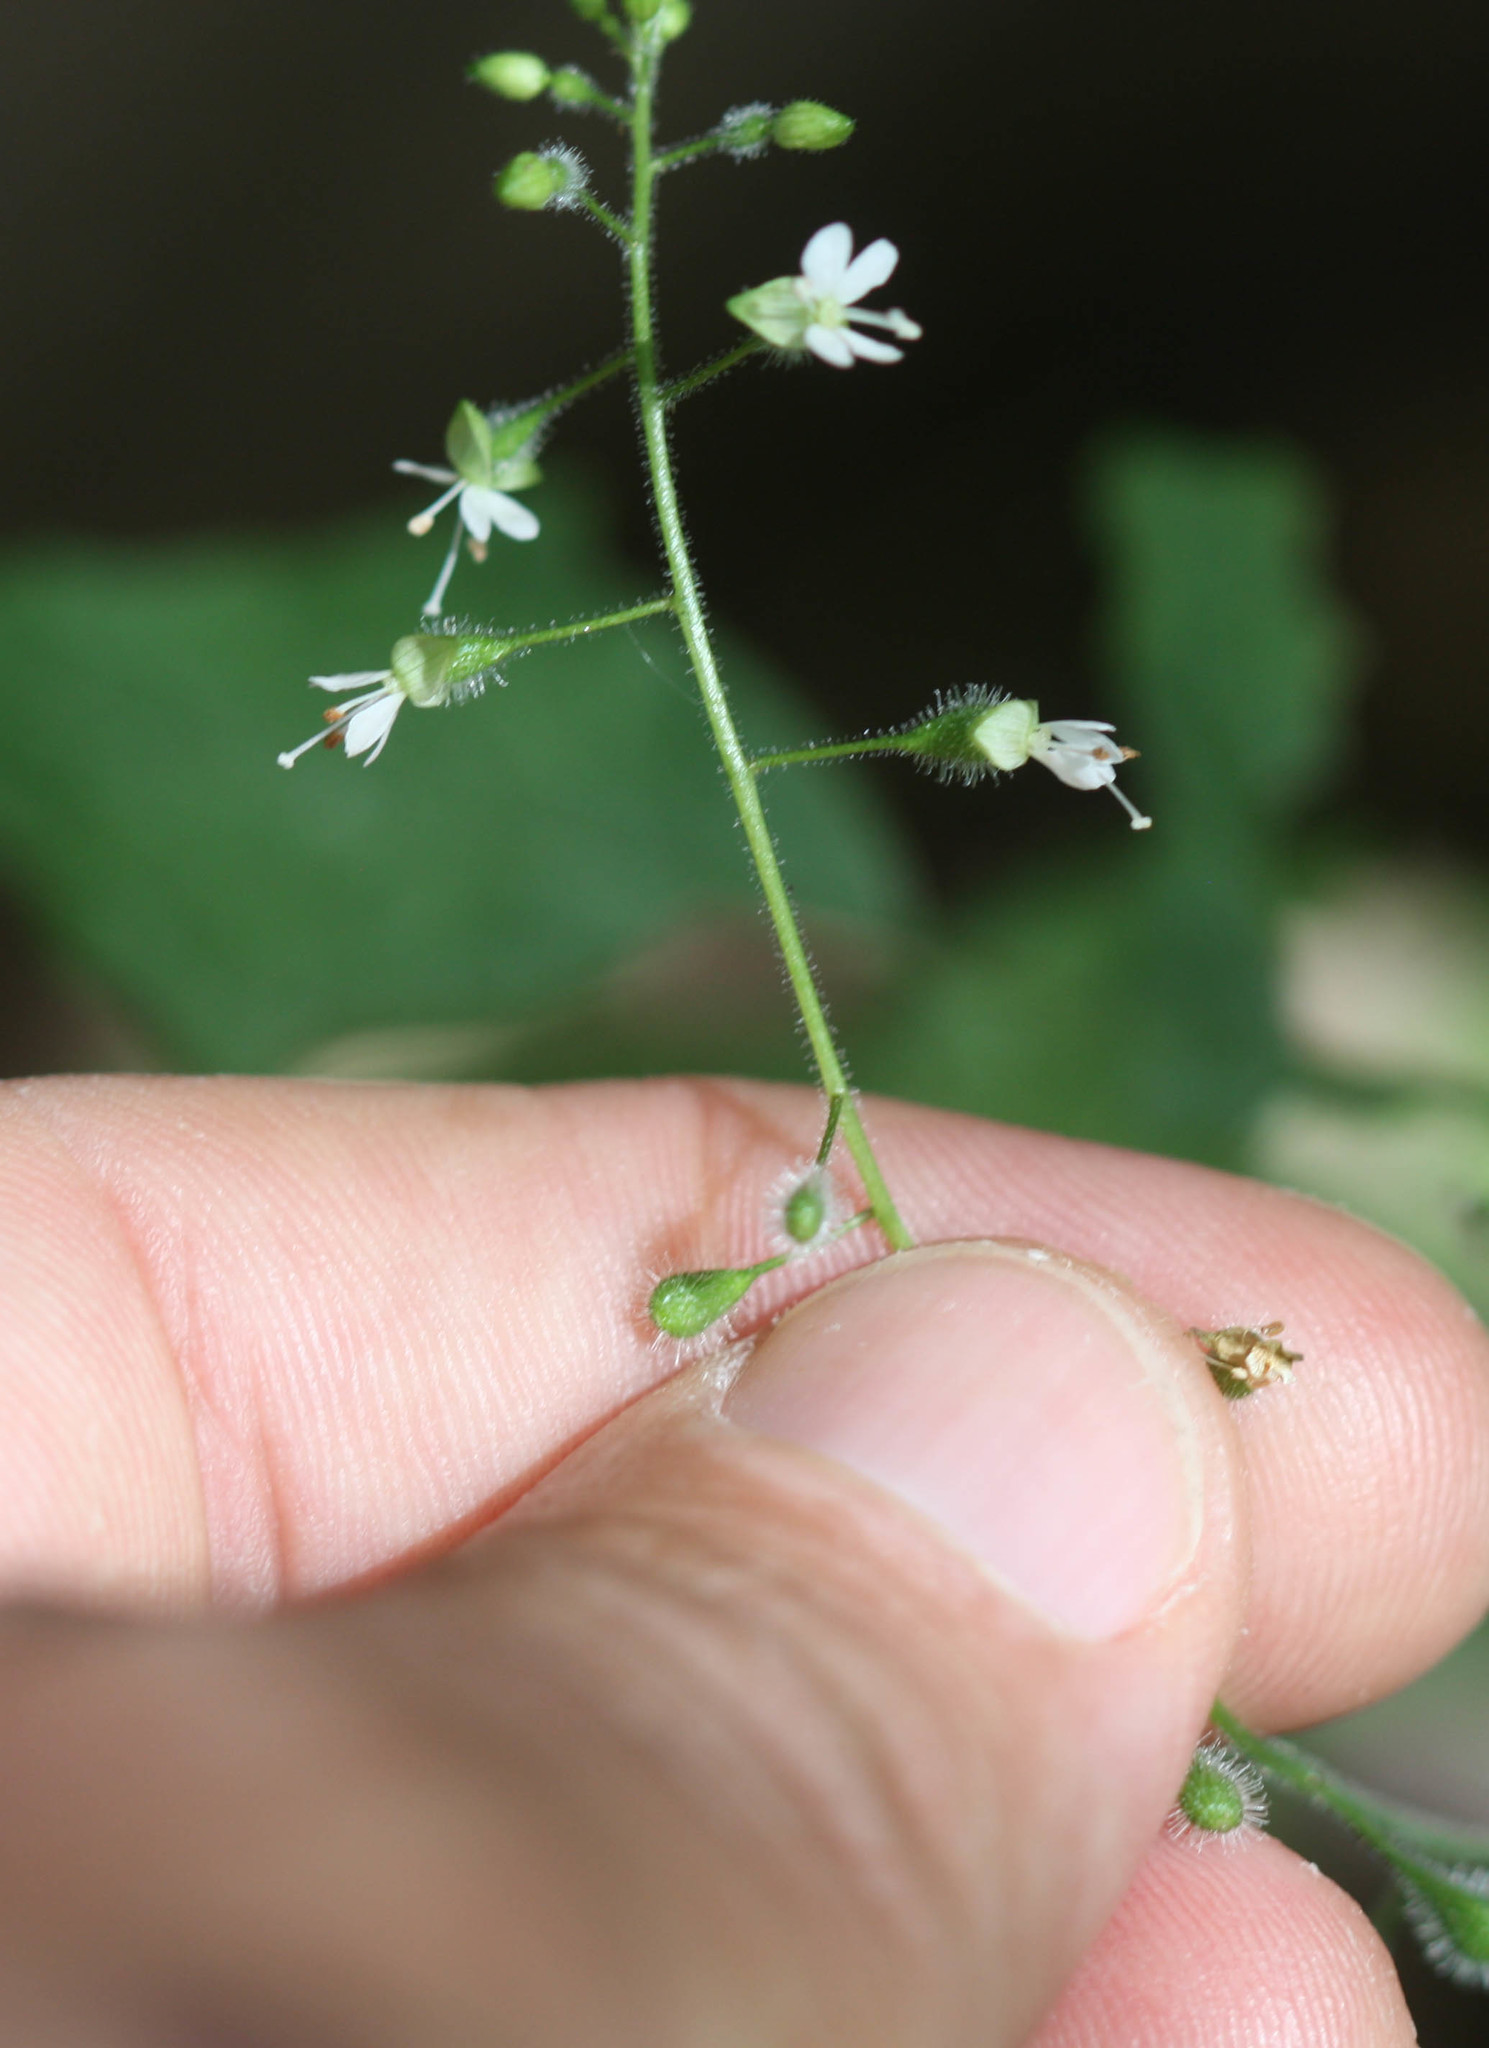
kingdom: Plantae
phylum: Tracheophyta
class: Magnoliopsida
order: Myrtales
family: Onagraceae
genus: Circaea
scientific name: Circaea canadensis
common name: Broad-leaved enchanter's nightshade
